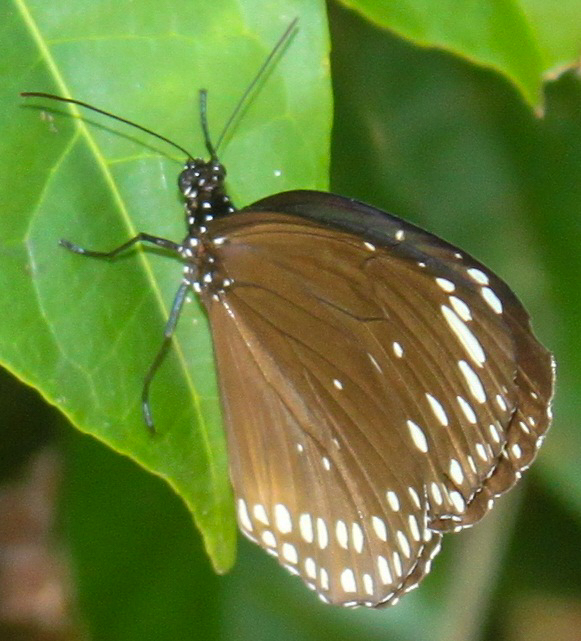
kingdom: Animalia
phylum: Arthropoda
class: Insecta
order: Lepidoptera
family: Nymphalidae
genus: Euploea
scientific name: Euploea crameri
